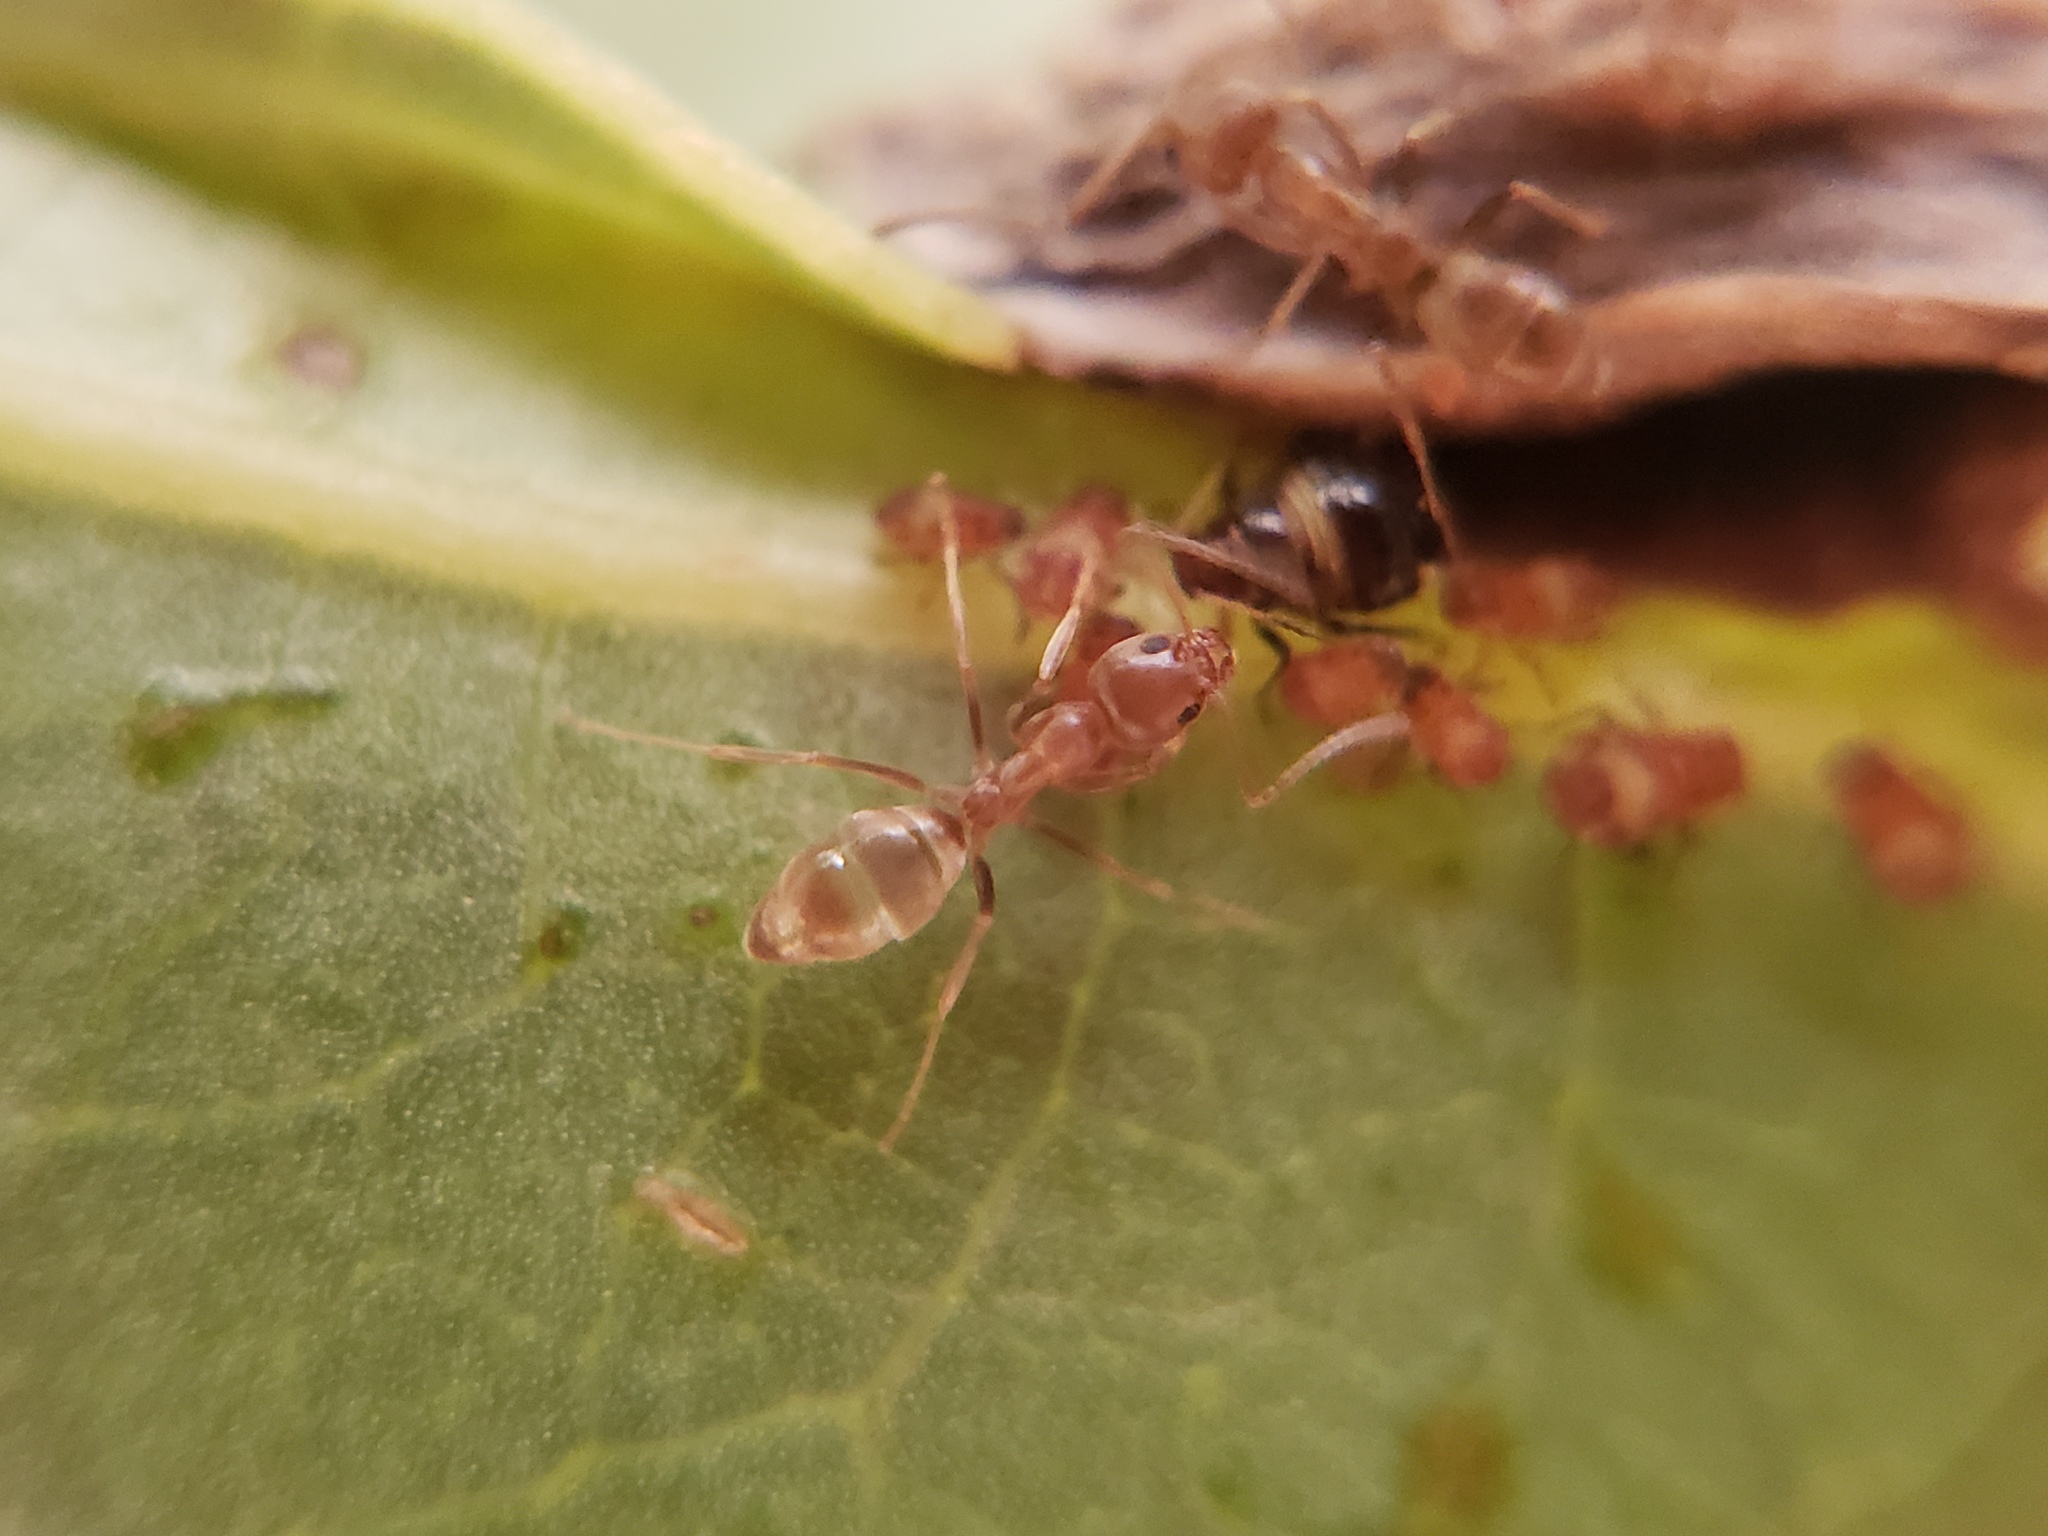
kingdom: Animalia
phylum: Arthropoda
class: Insecta
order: Hymenoptera
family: Formicidae
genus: Linepithema
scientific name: Linepithema humile
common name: Argentine ant
